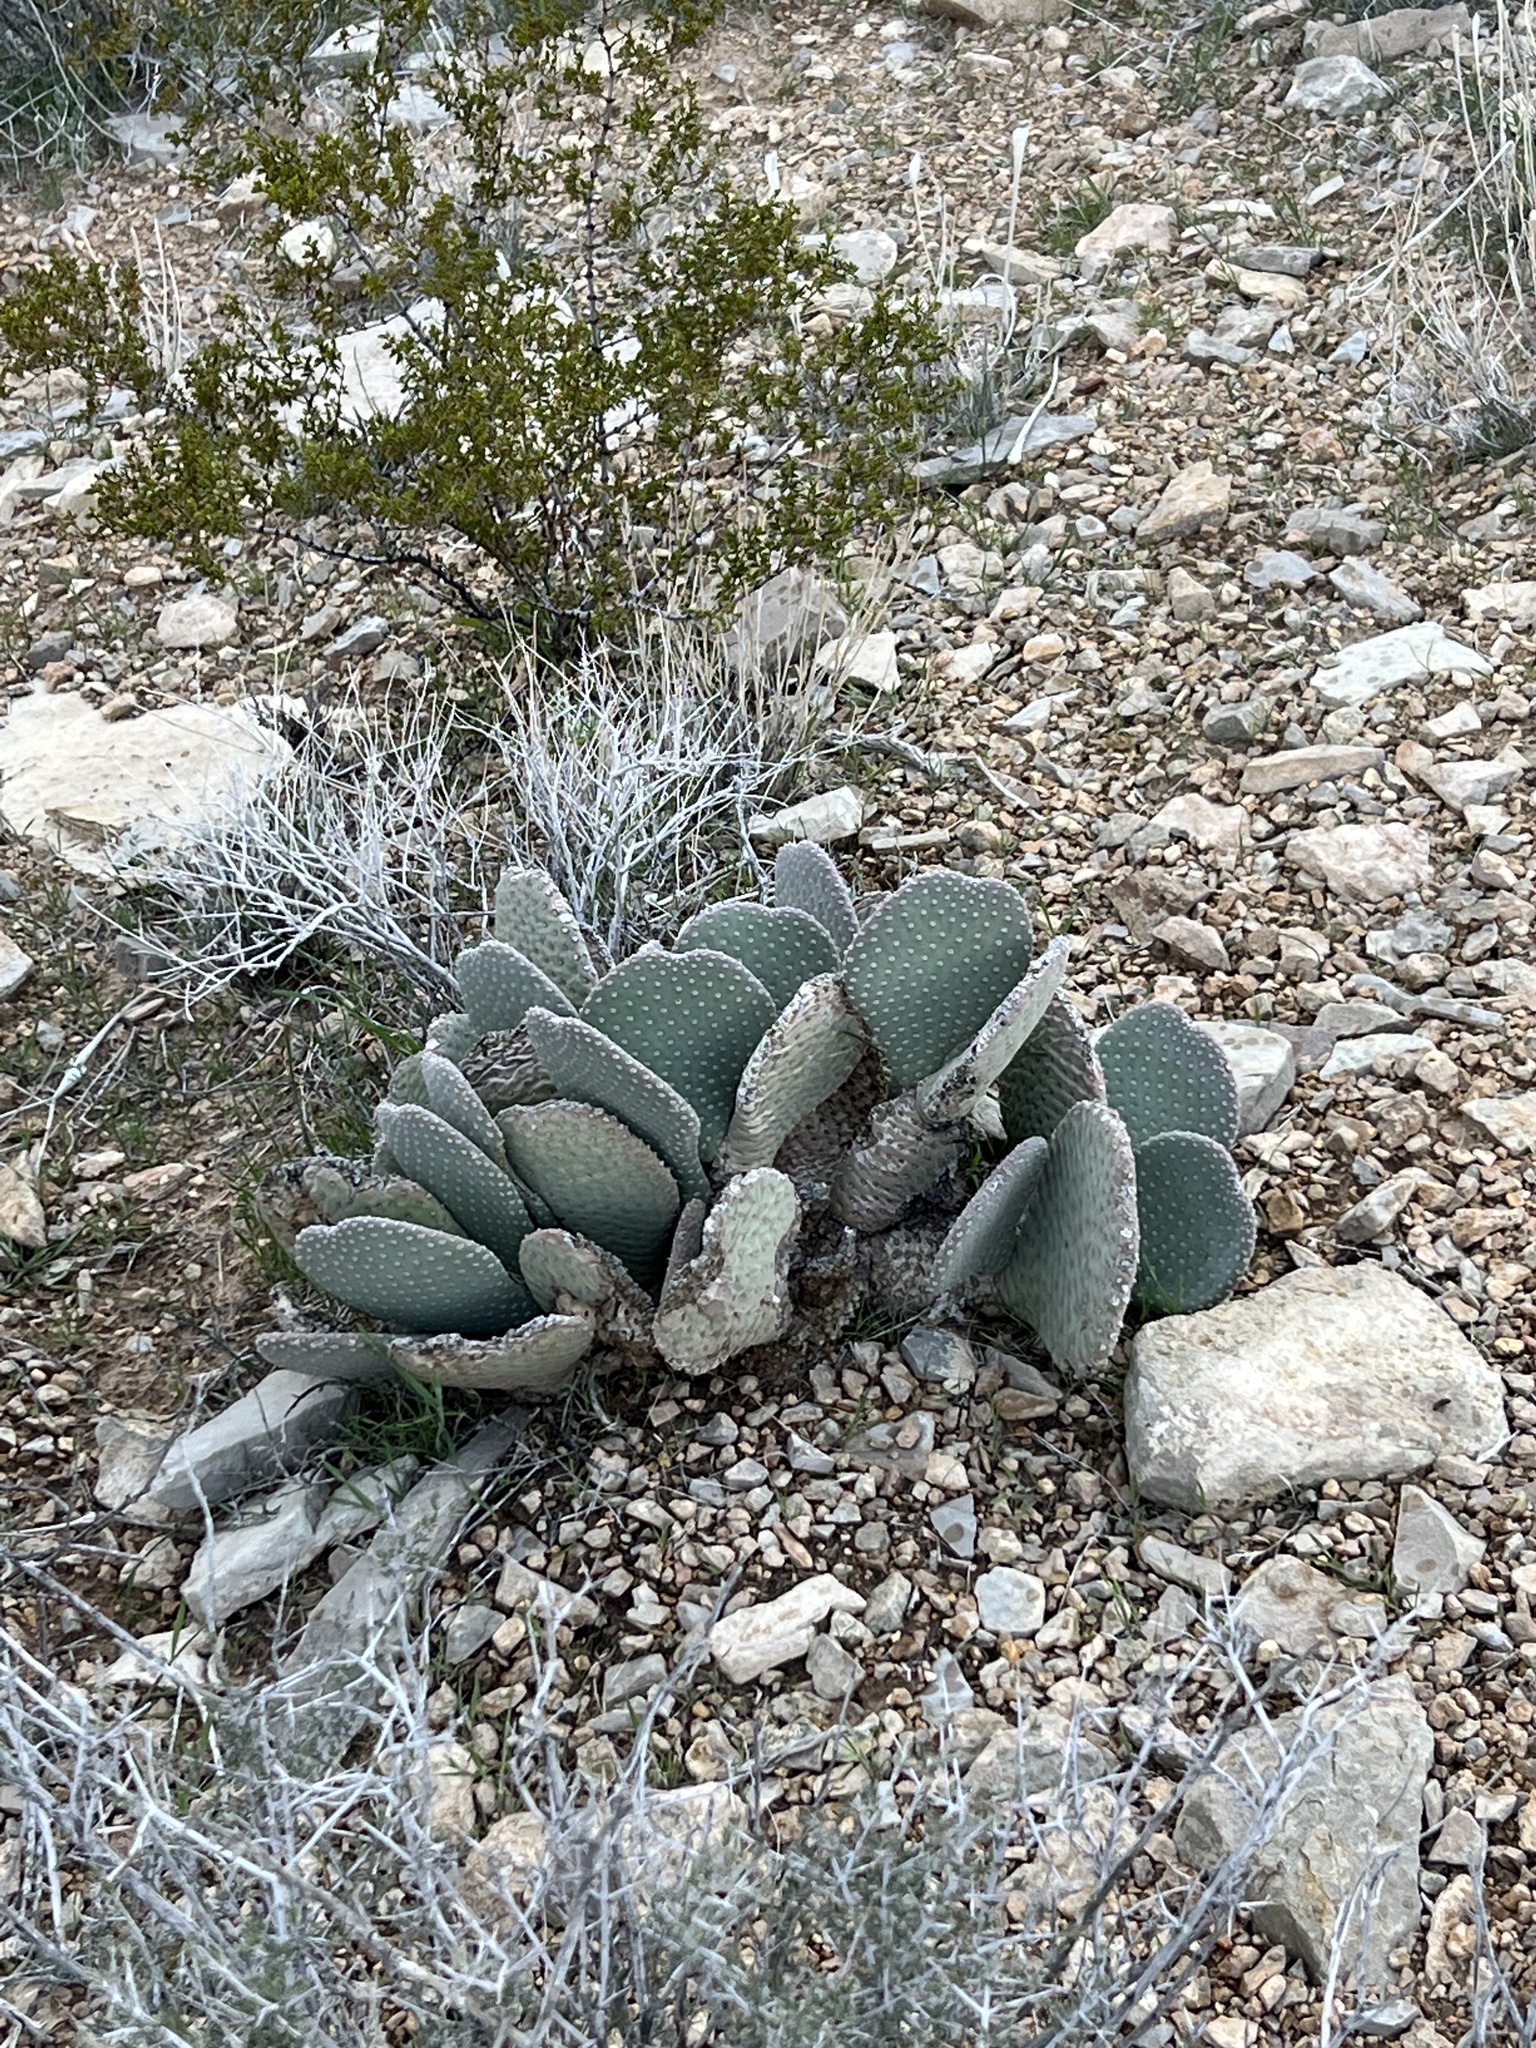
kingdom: Plantae
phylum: Tracheophyta
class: Magnoliopsida
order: Caryophyllales
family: Cactaceae
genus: Opuntia
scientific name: Opuntia basilaris
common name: Beavertail prickly-pear
